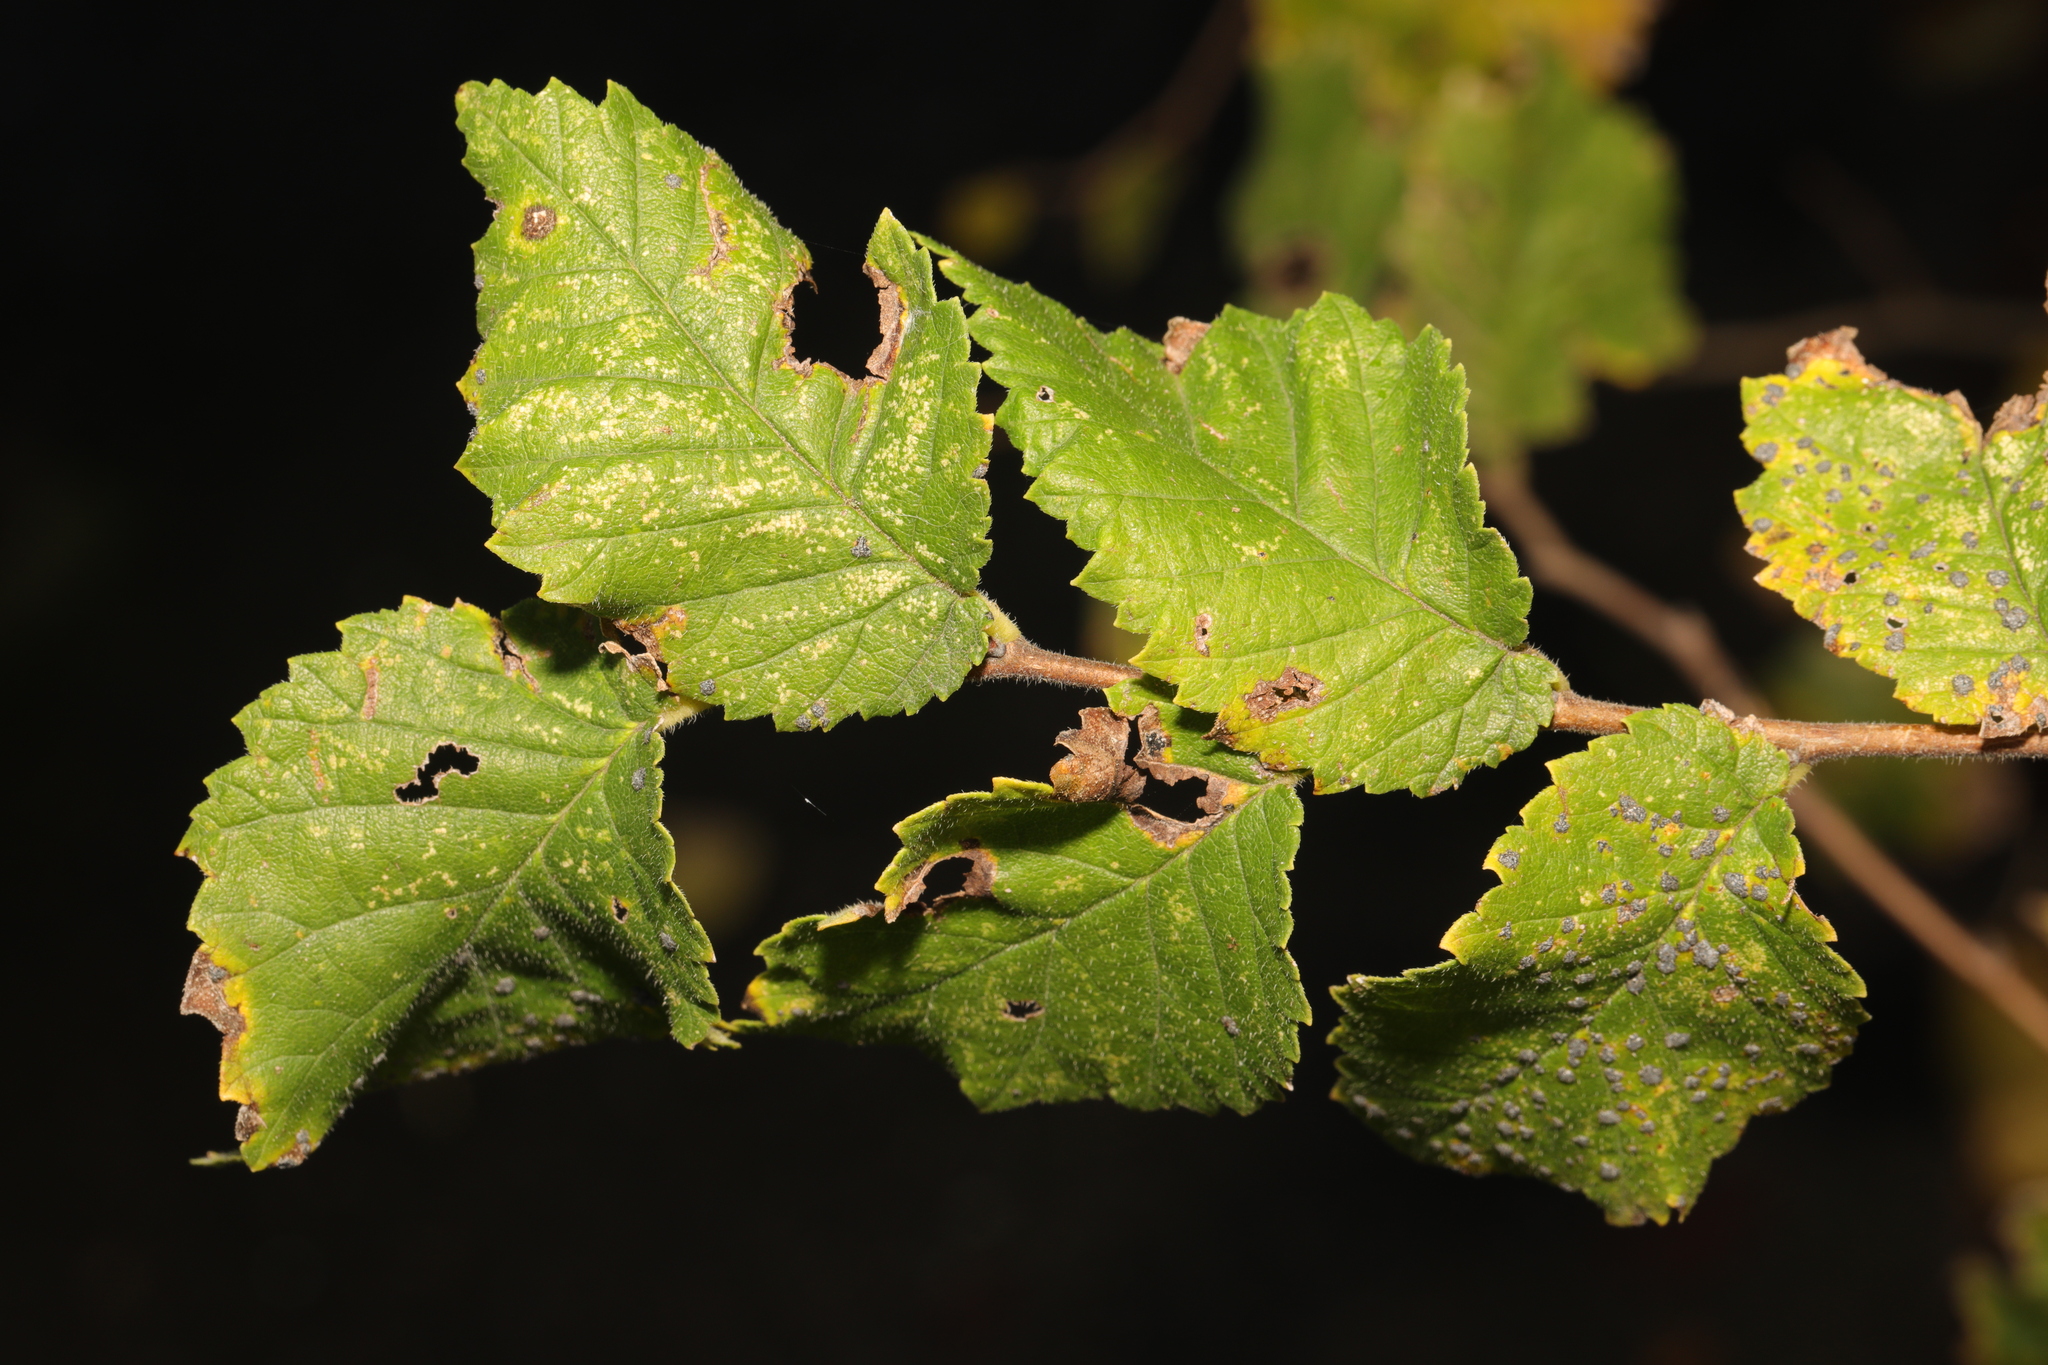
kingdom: Plantae
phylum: Tracheophyta
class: Magnoliopsida
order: Rosales
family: Ulmaceae
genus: Ulmus
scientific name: Ulmus minor
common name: Small-leaved elm
